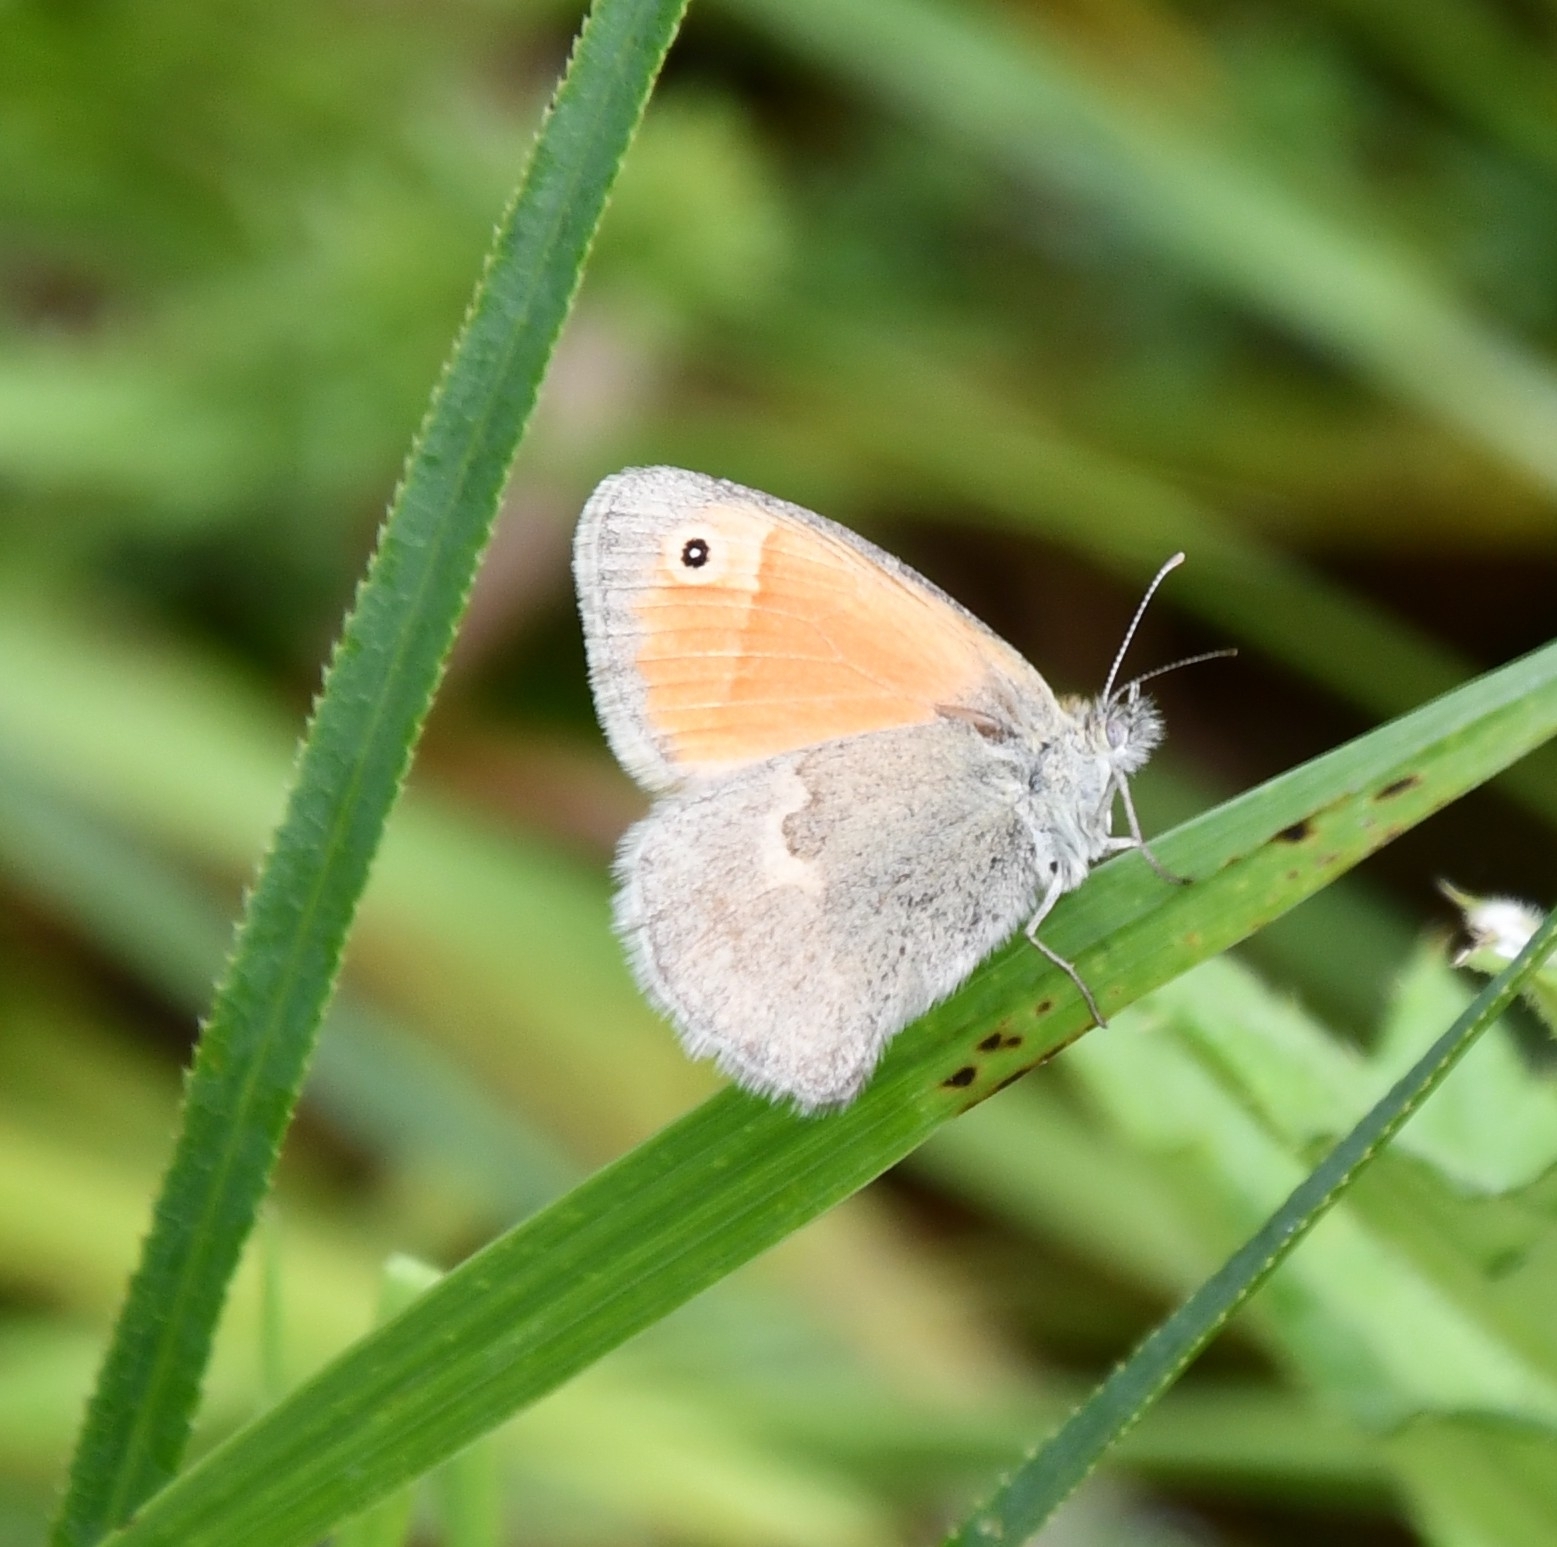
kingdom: Animalia
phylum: Arthropoda
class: Insecta
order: Lepidoptera
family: Nymphalidae
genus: Coenonympha
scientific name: Coenonympha pamphilus
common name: Small heath
